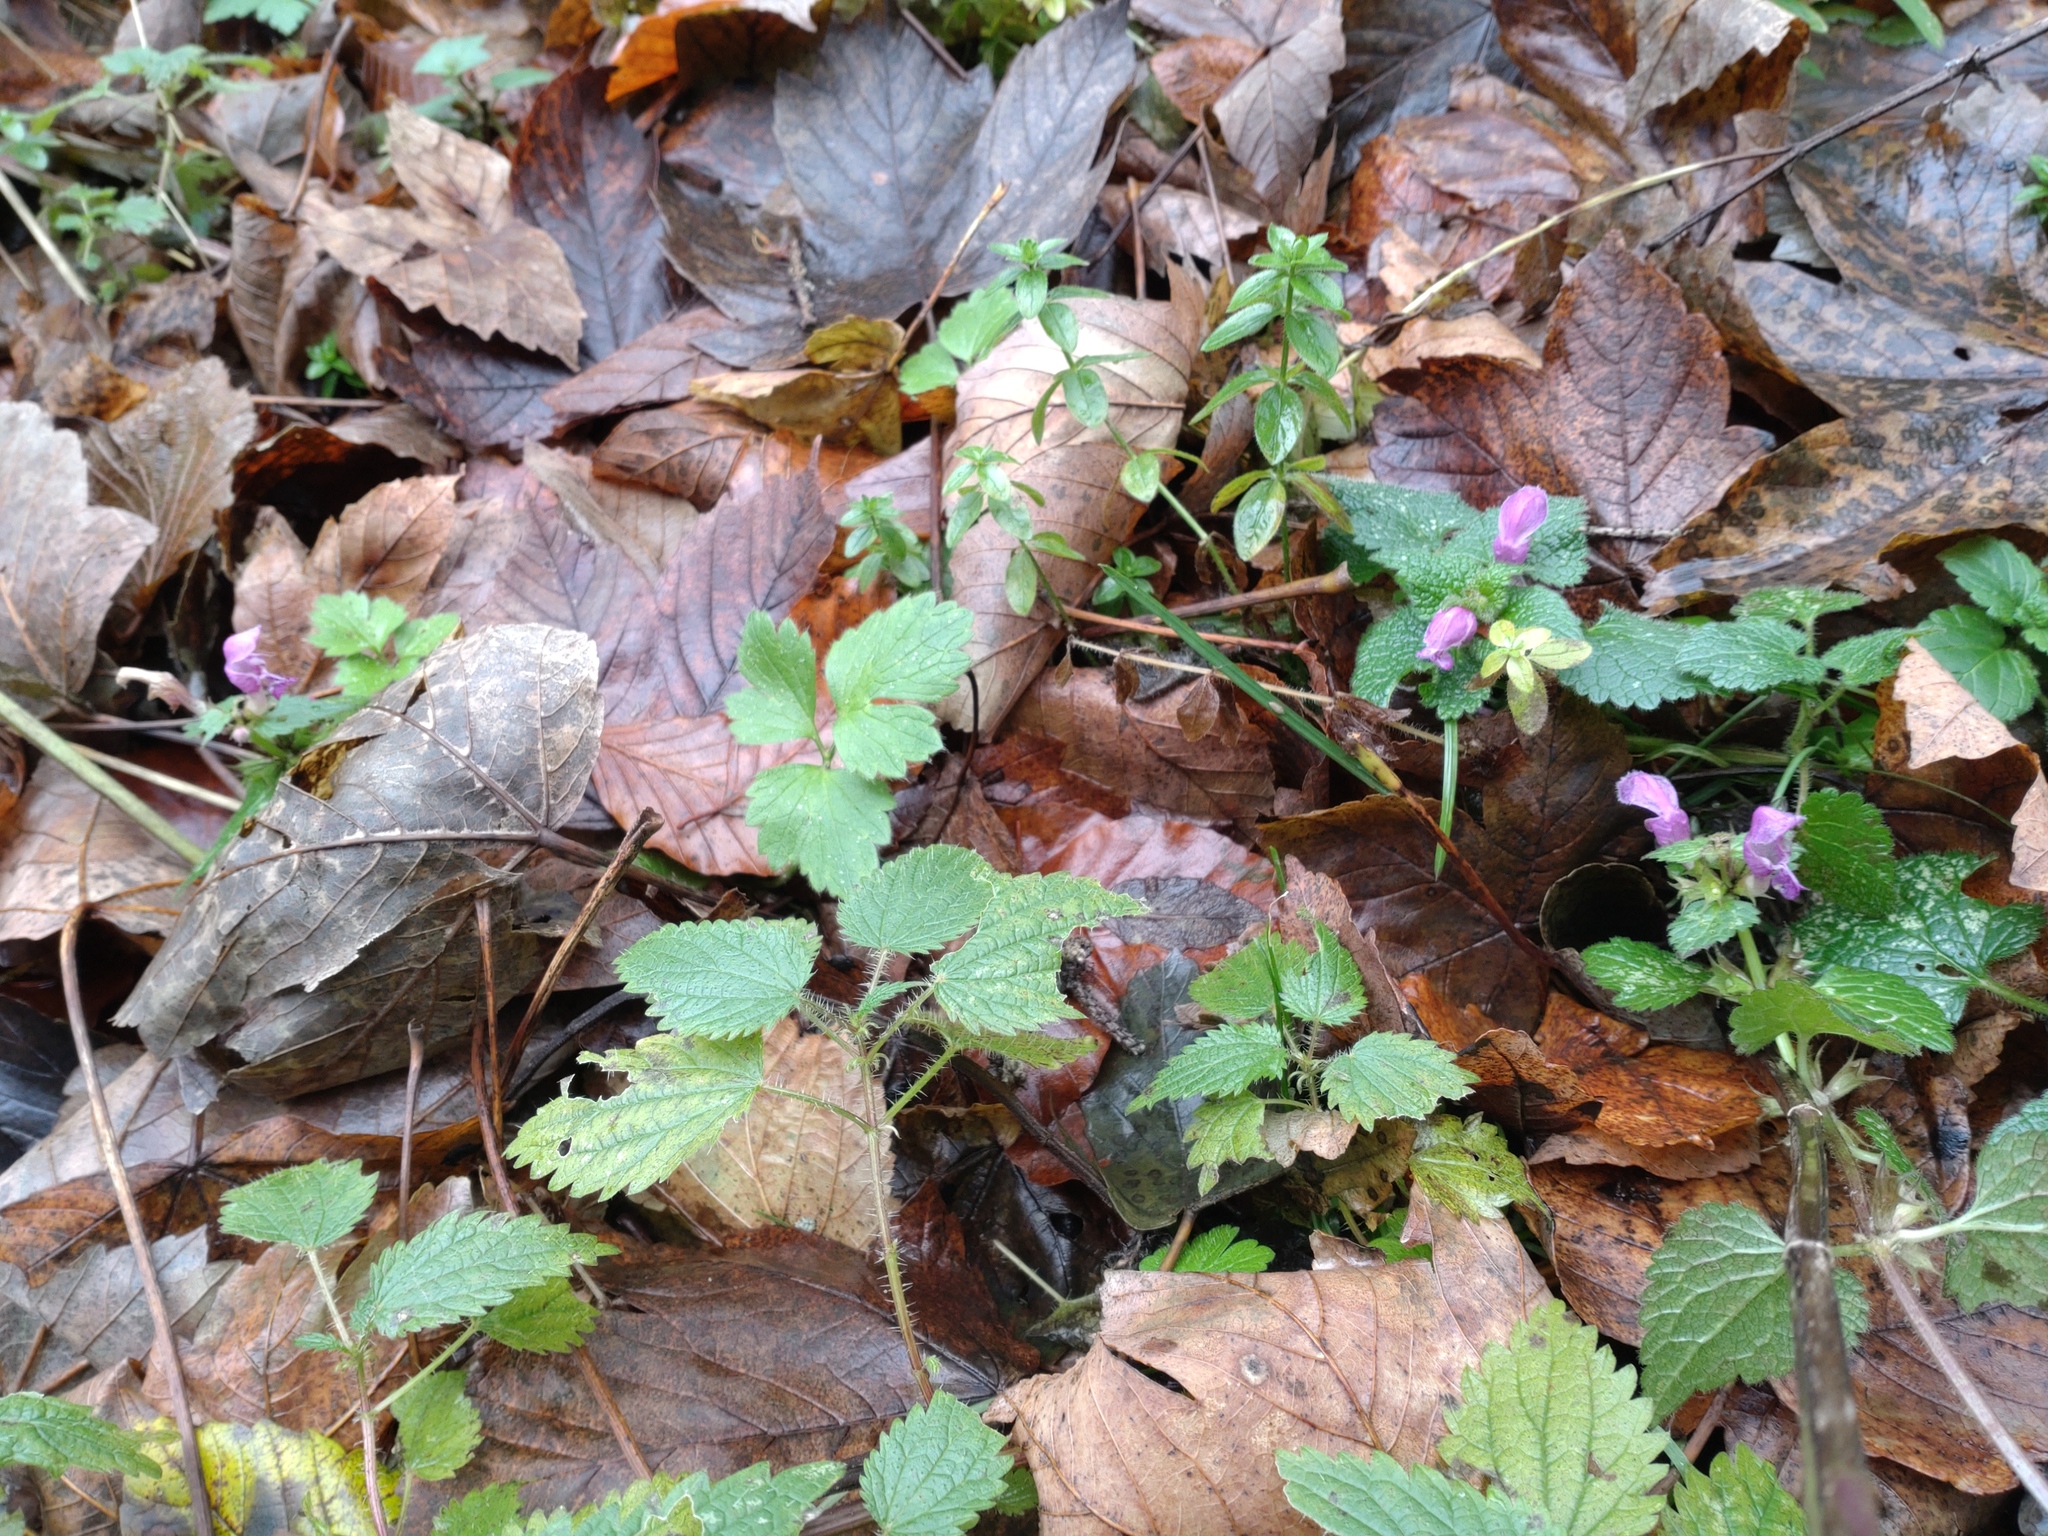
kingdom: Plantae
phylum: Tracheophyta
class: Magnoliopsida
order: Lamiales
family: Lamiaceae
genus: Lamium
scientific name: Lamium maculatum
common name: Spotted dead-nettle
